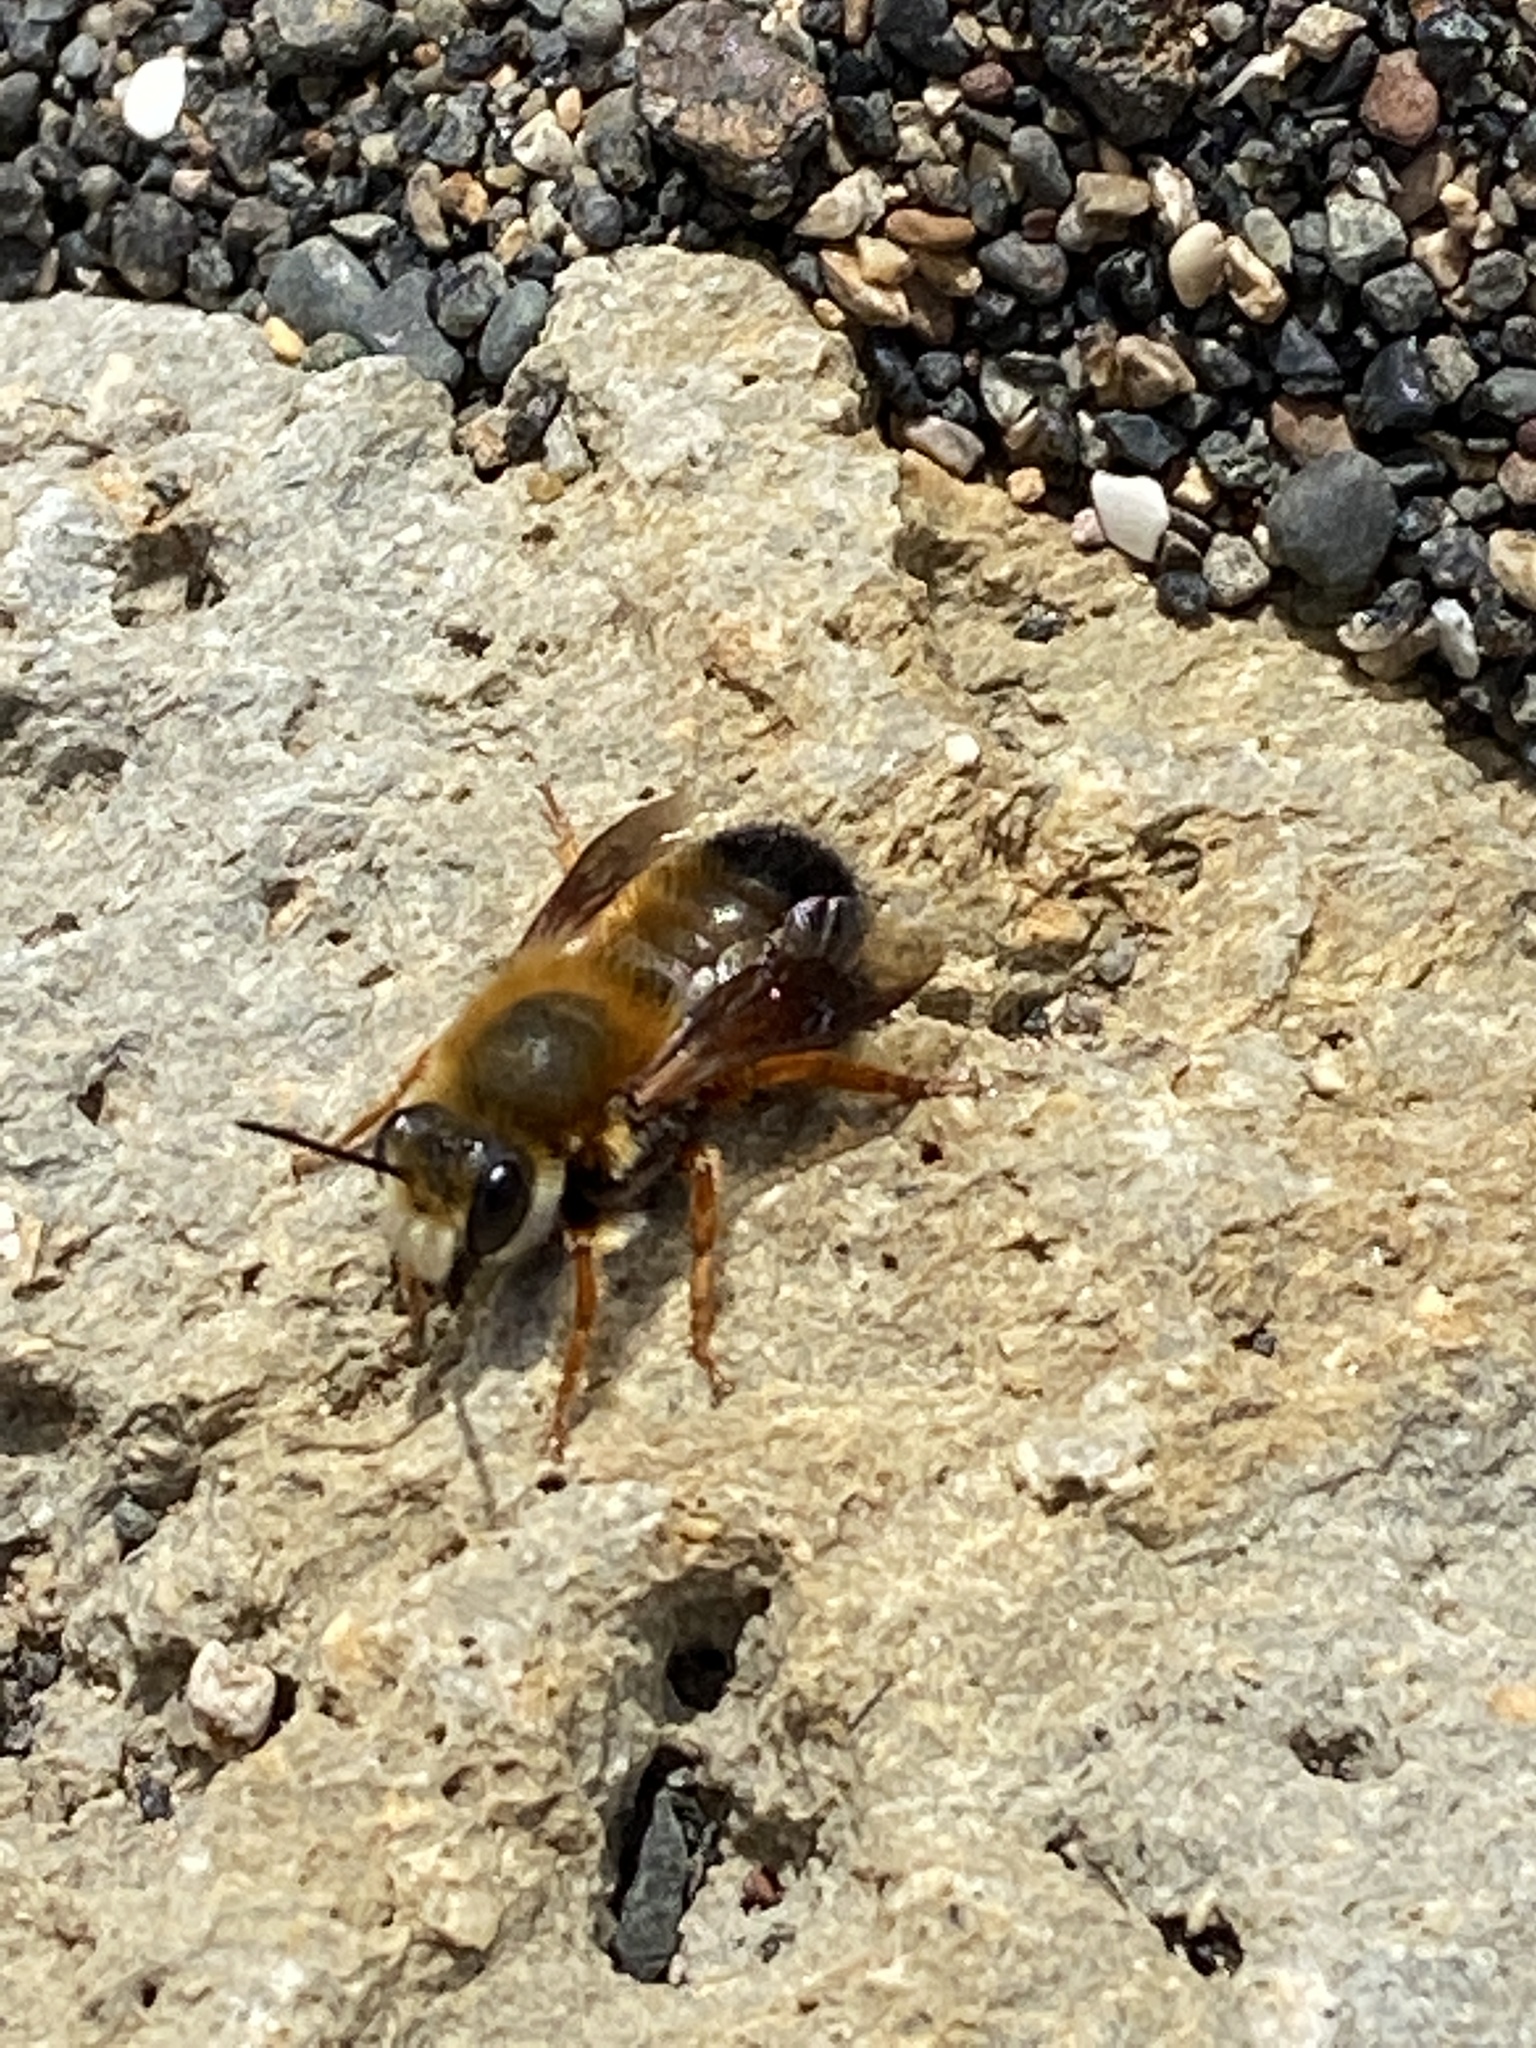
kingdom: Animalia
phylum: Arthropoda
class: Insecta
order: Hymenoptera
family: Megachilidae
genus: Megachile
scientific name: Megachile sicula
